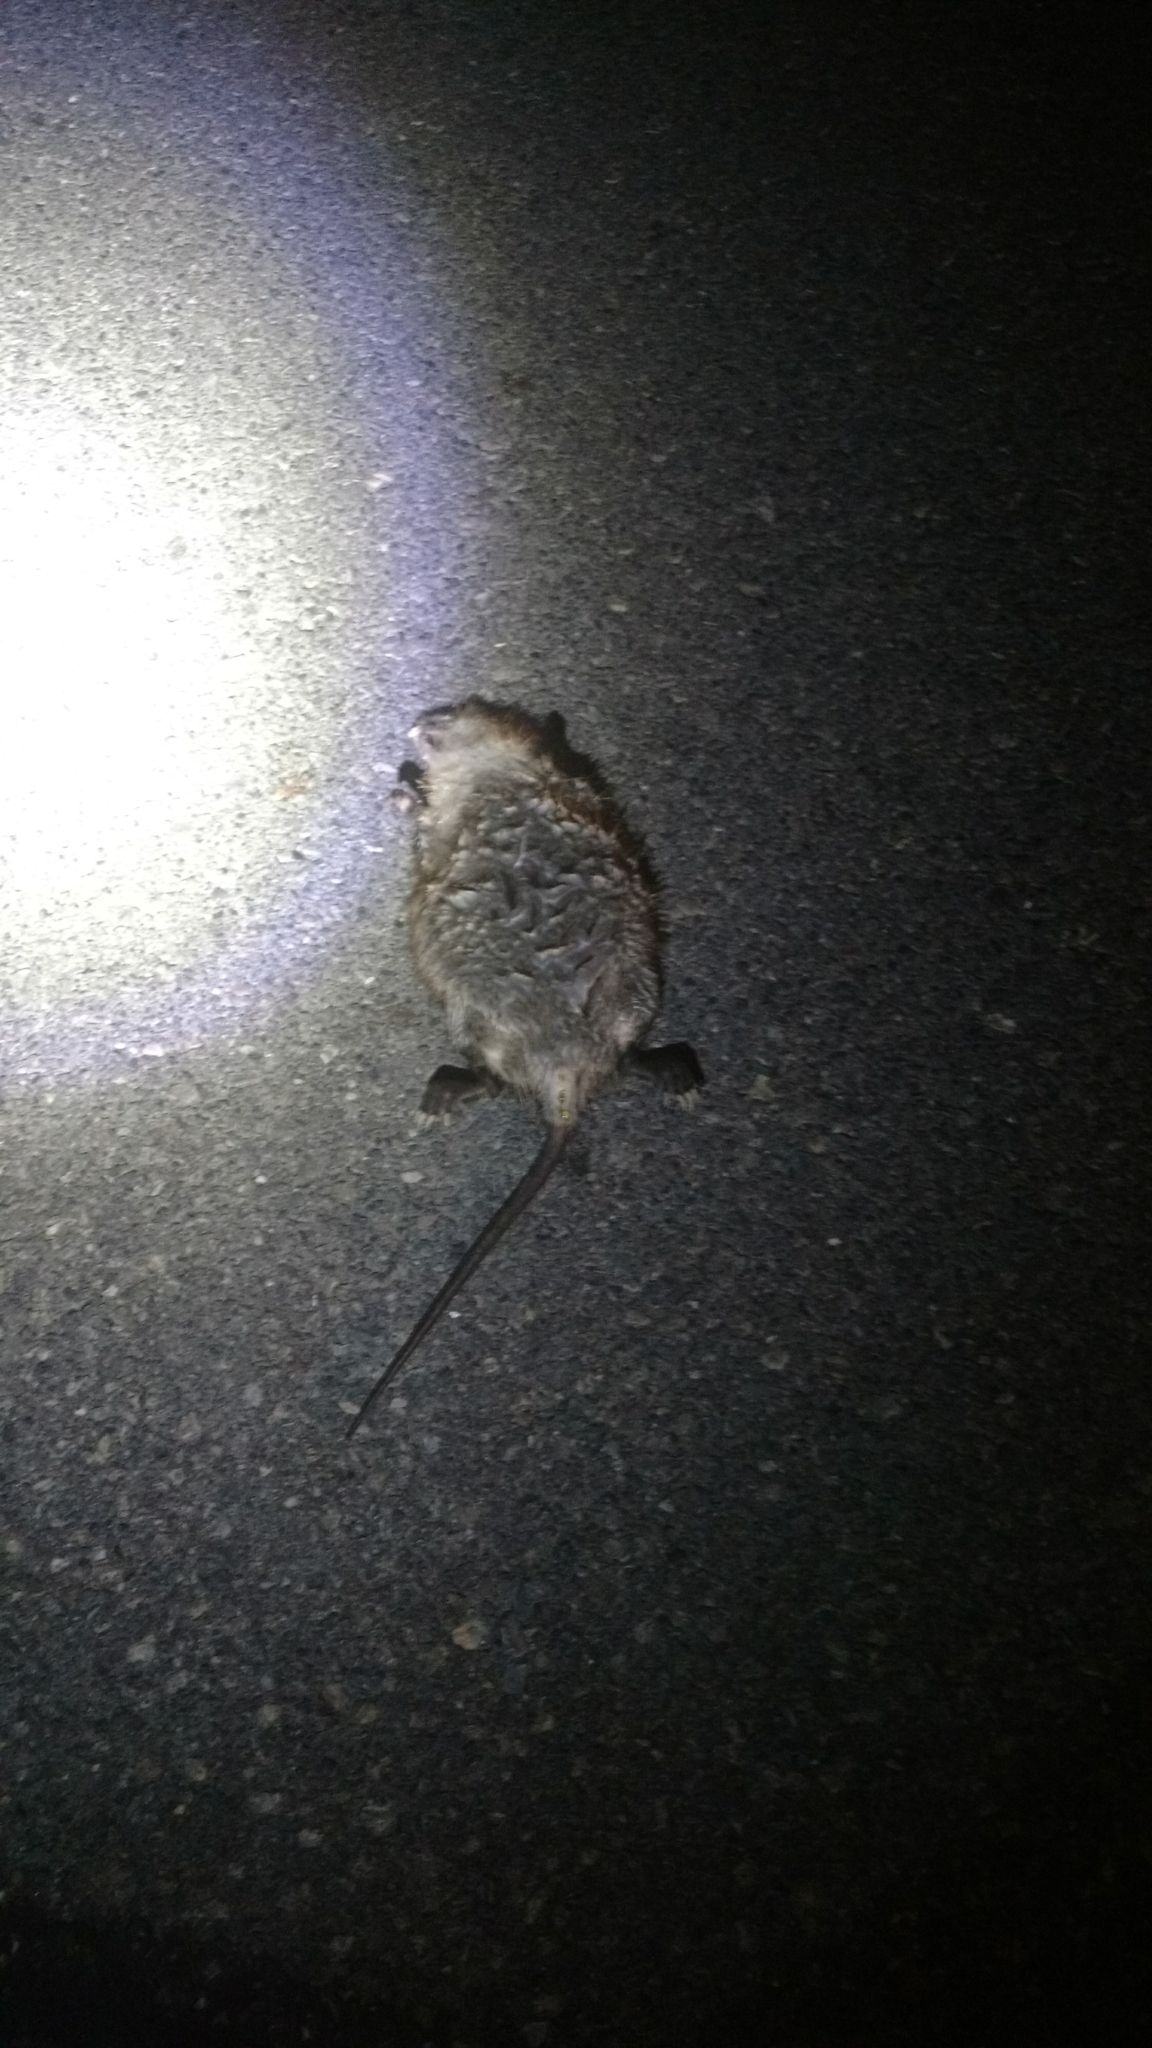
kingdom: Animalia
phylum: Chordata
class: Mammalia
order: Rodentia
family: Cricetidae
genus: Ondatra
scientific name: Ondatra zibethicus
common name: Muskrat
